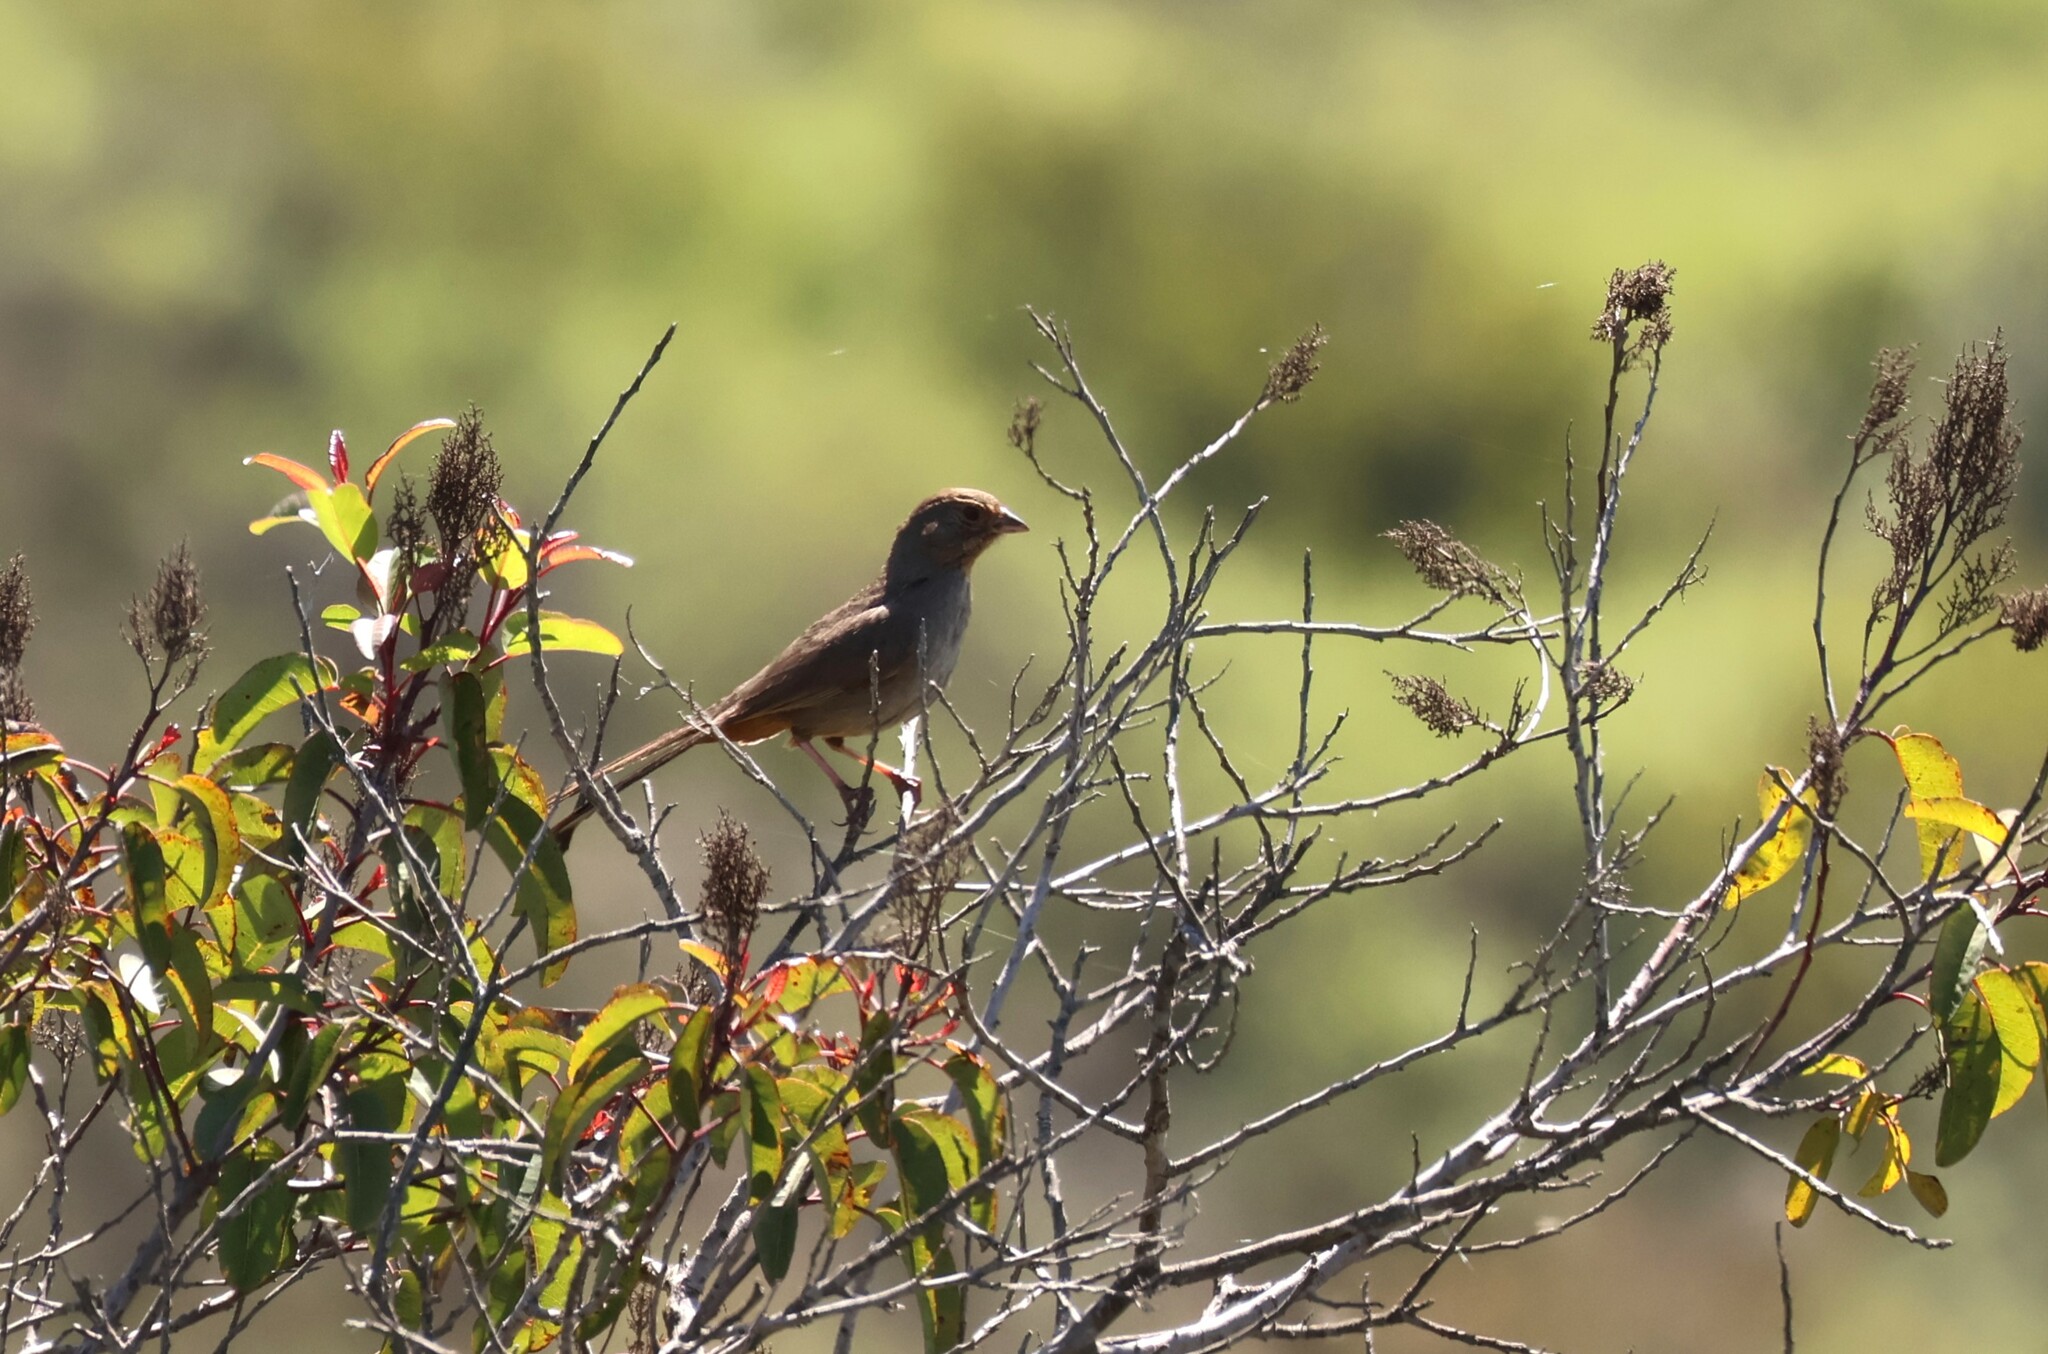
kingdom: Animalia
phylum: Chordata
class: Aves
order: Passeriformes
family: Passerellidae
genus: Melozone
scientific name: Melozone crissalis
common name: California towhee
